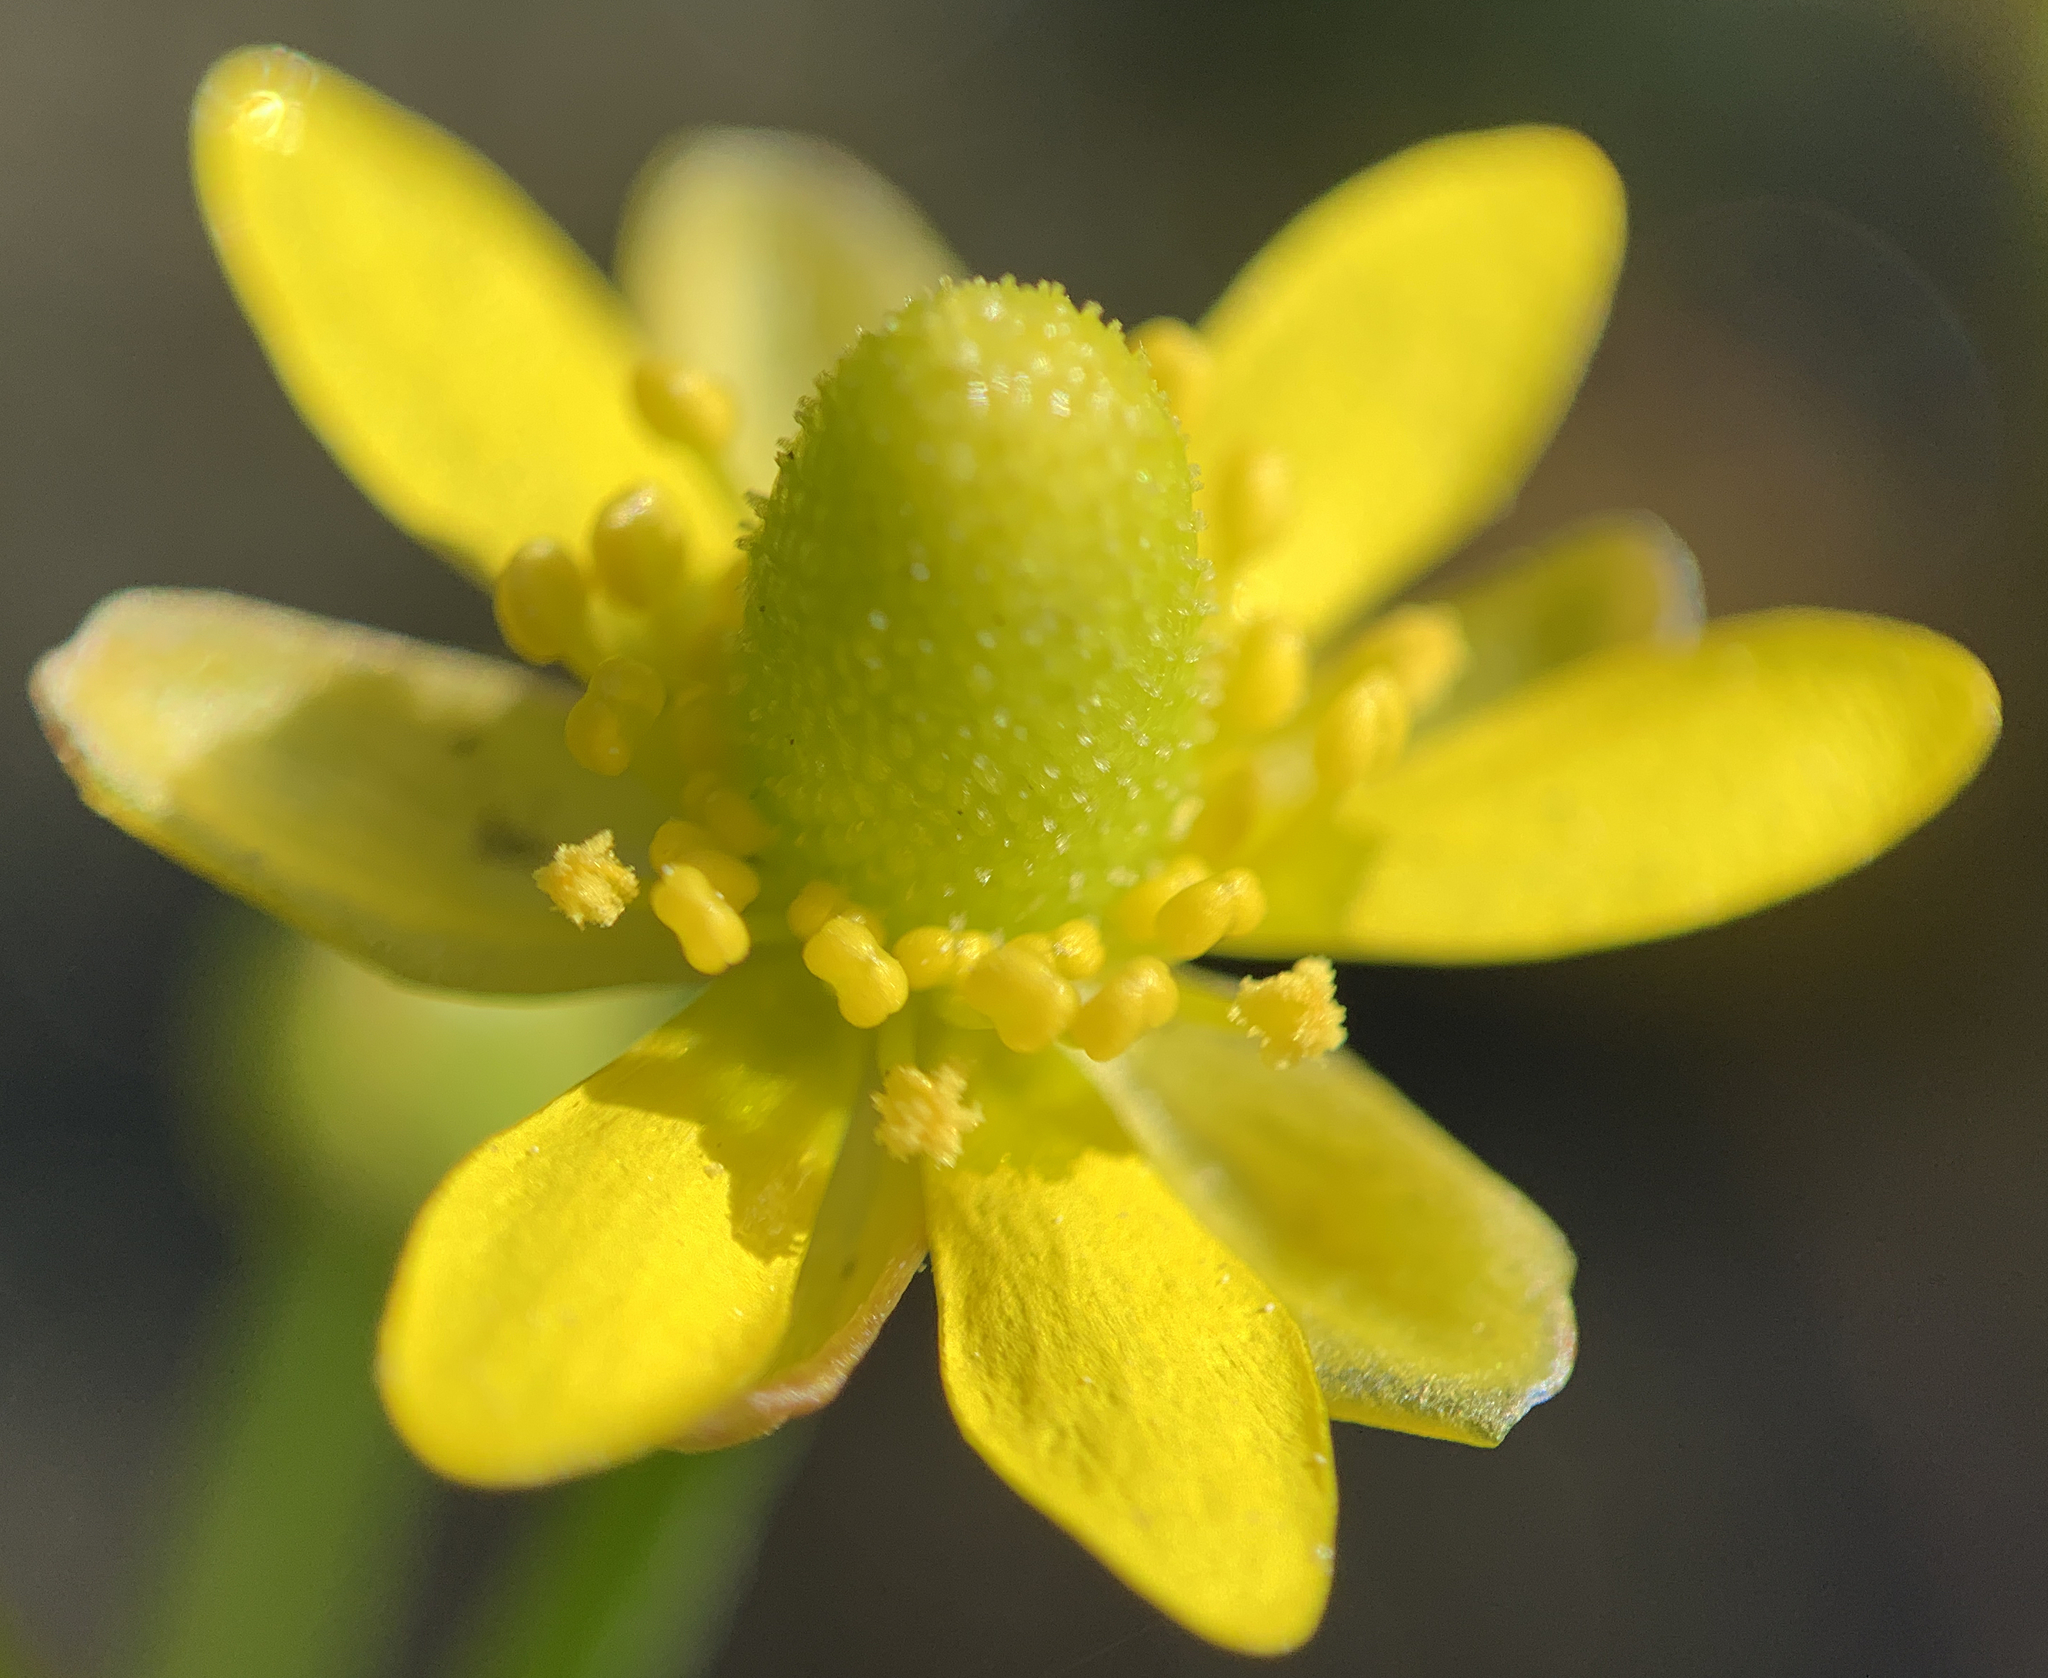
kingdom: Plantae
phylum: Tracheophyta
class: Magnoliopsida
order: Ranunculales
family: Ranunculaceae
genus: Halerpestes
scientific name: Halerpestes cymbalaria
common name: Seaside crowfoot
